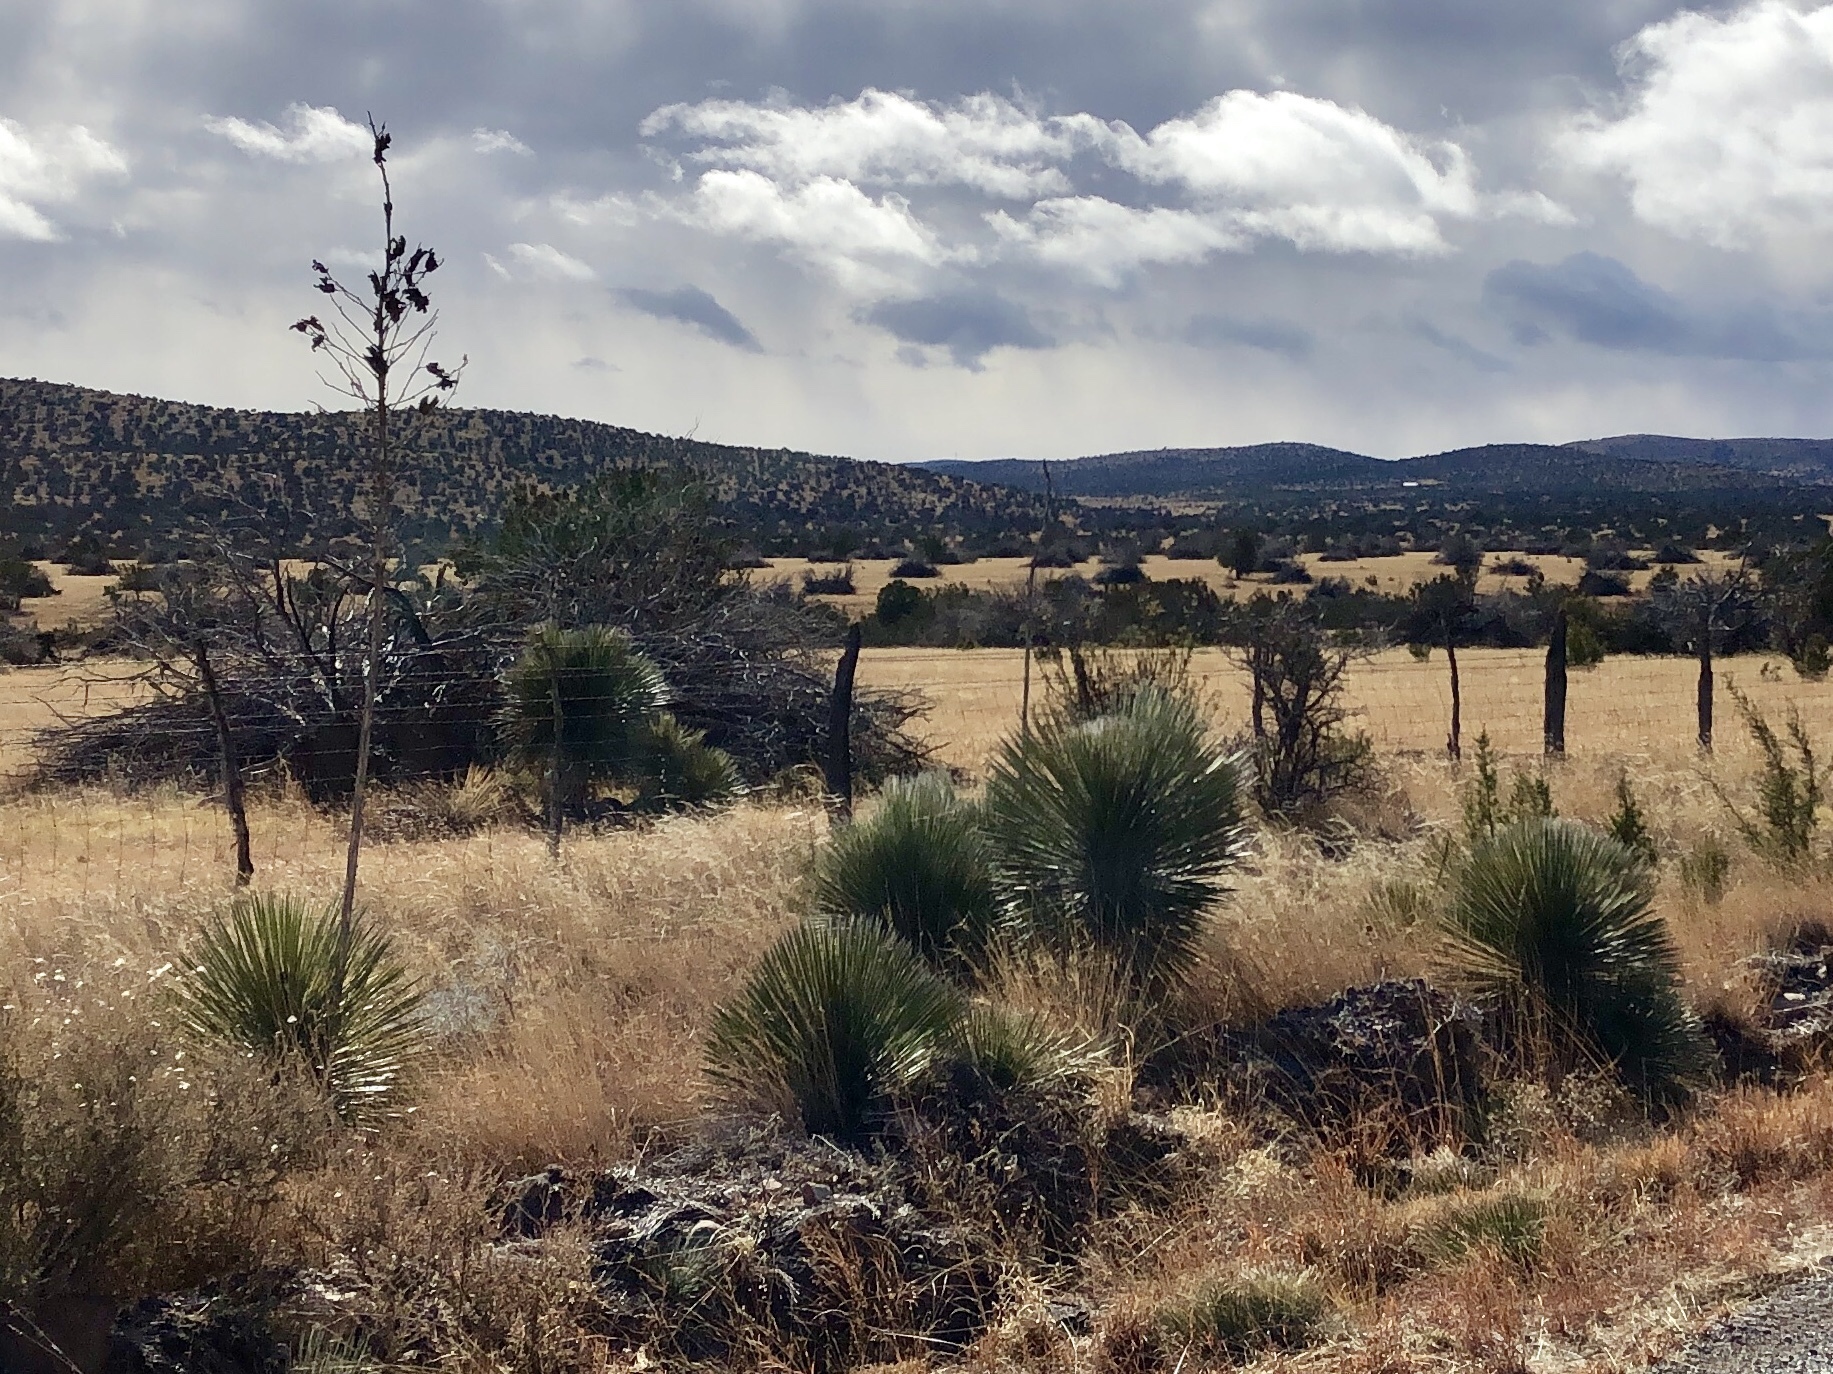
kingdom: Plantae
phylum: Tracheophyta
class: Liliopsida
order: Asparagales
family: Asparagaceae
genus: Yucca
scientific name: Yucca elata
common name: Palmella
